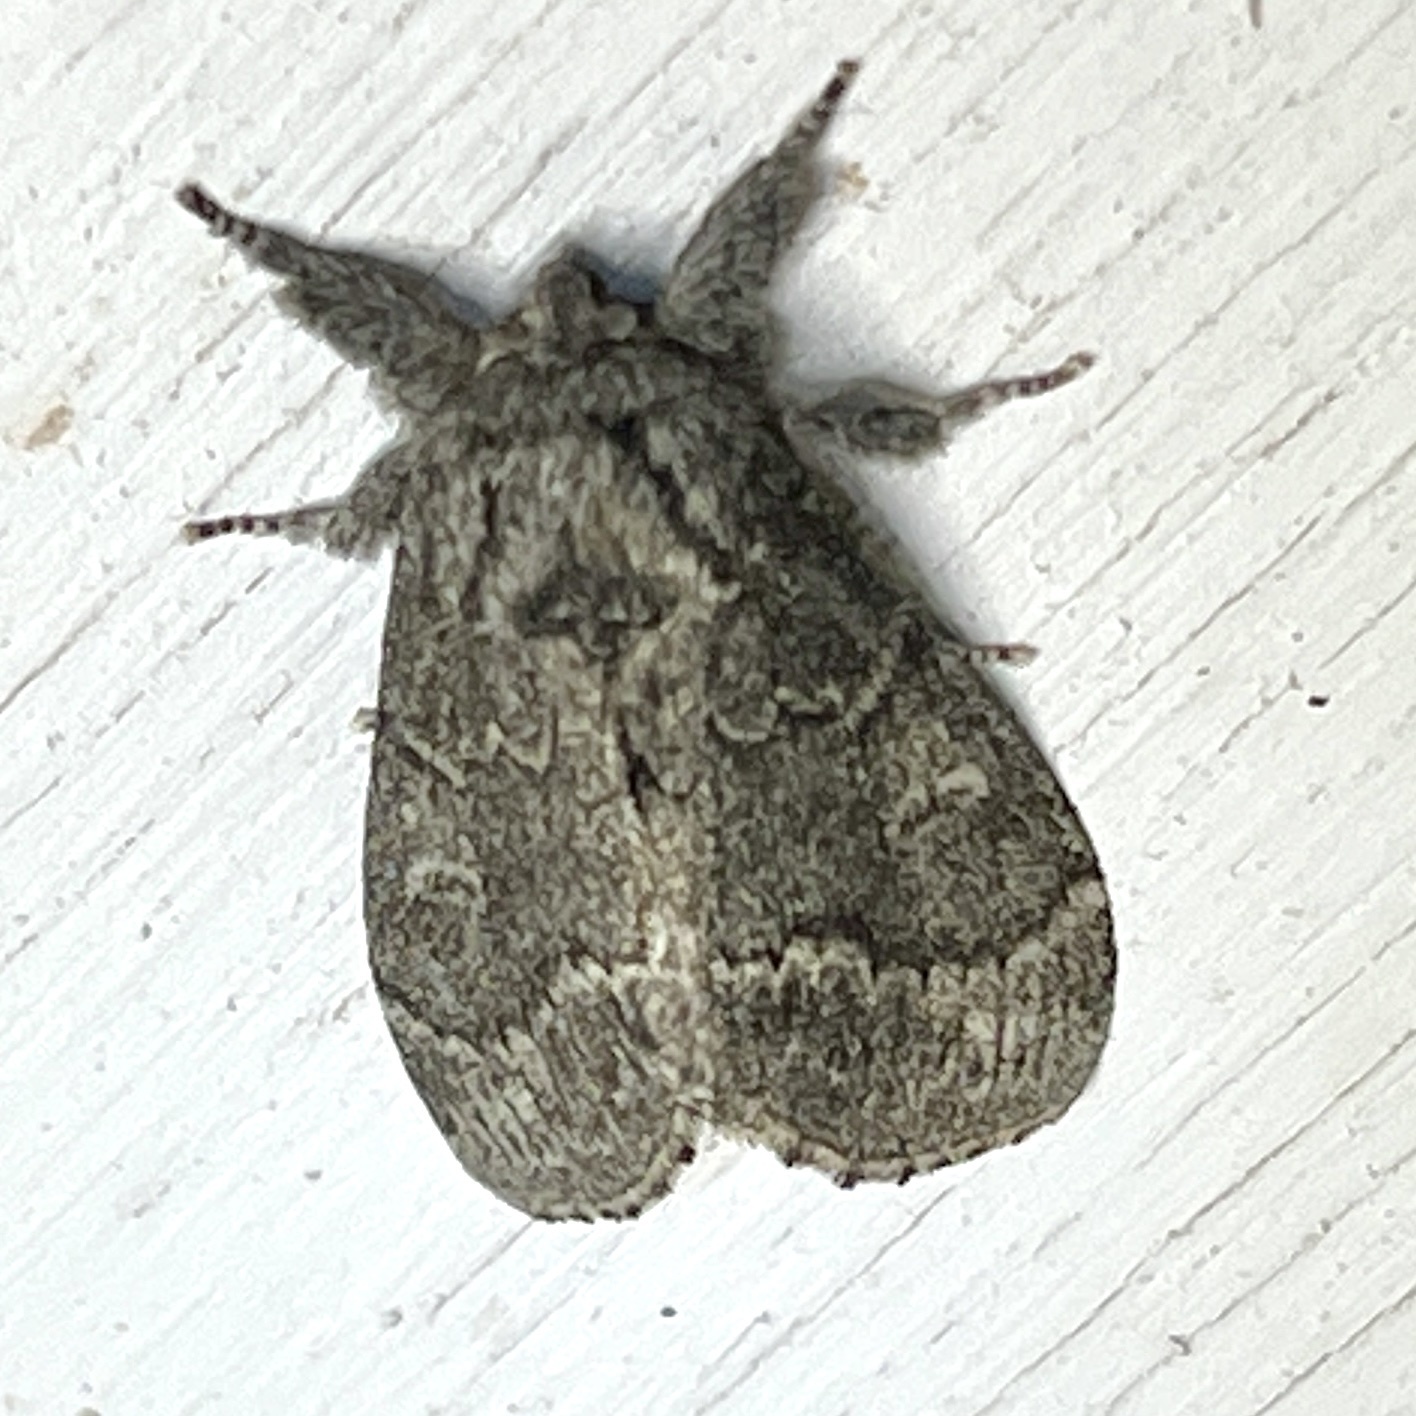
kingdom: Animalia
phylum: Arthropoda
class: Insecta
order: Lepidoptera
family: Notodontidae
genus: Notodonta
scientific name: Notodonta torva
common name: Large dark prominent
